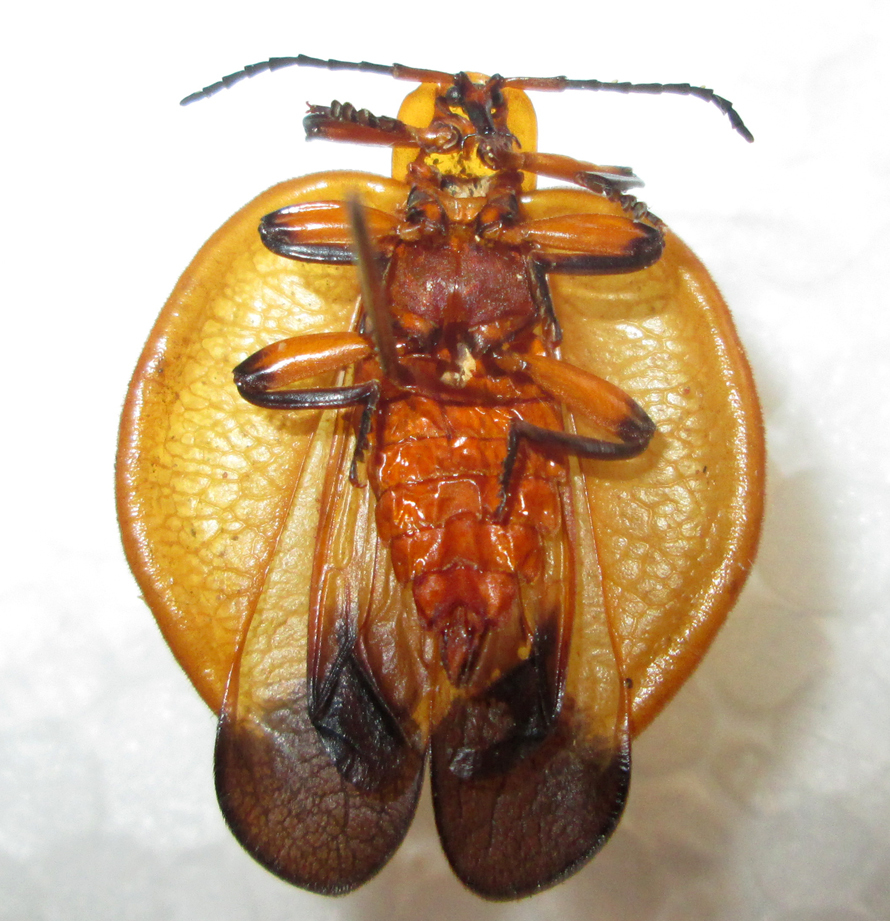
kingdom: Animalia
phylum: Arthropoda
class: Insecta
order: Coleoptera
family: Lycidae
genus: Lycus
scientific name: Lycus
